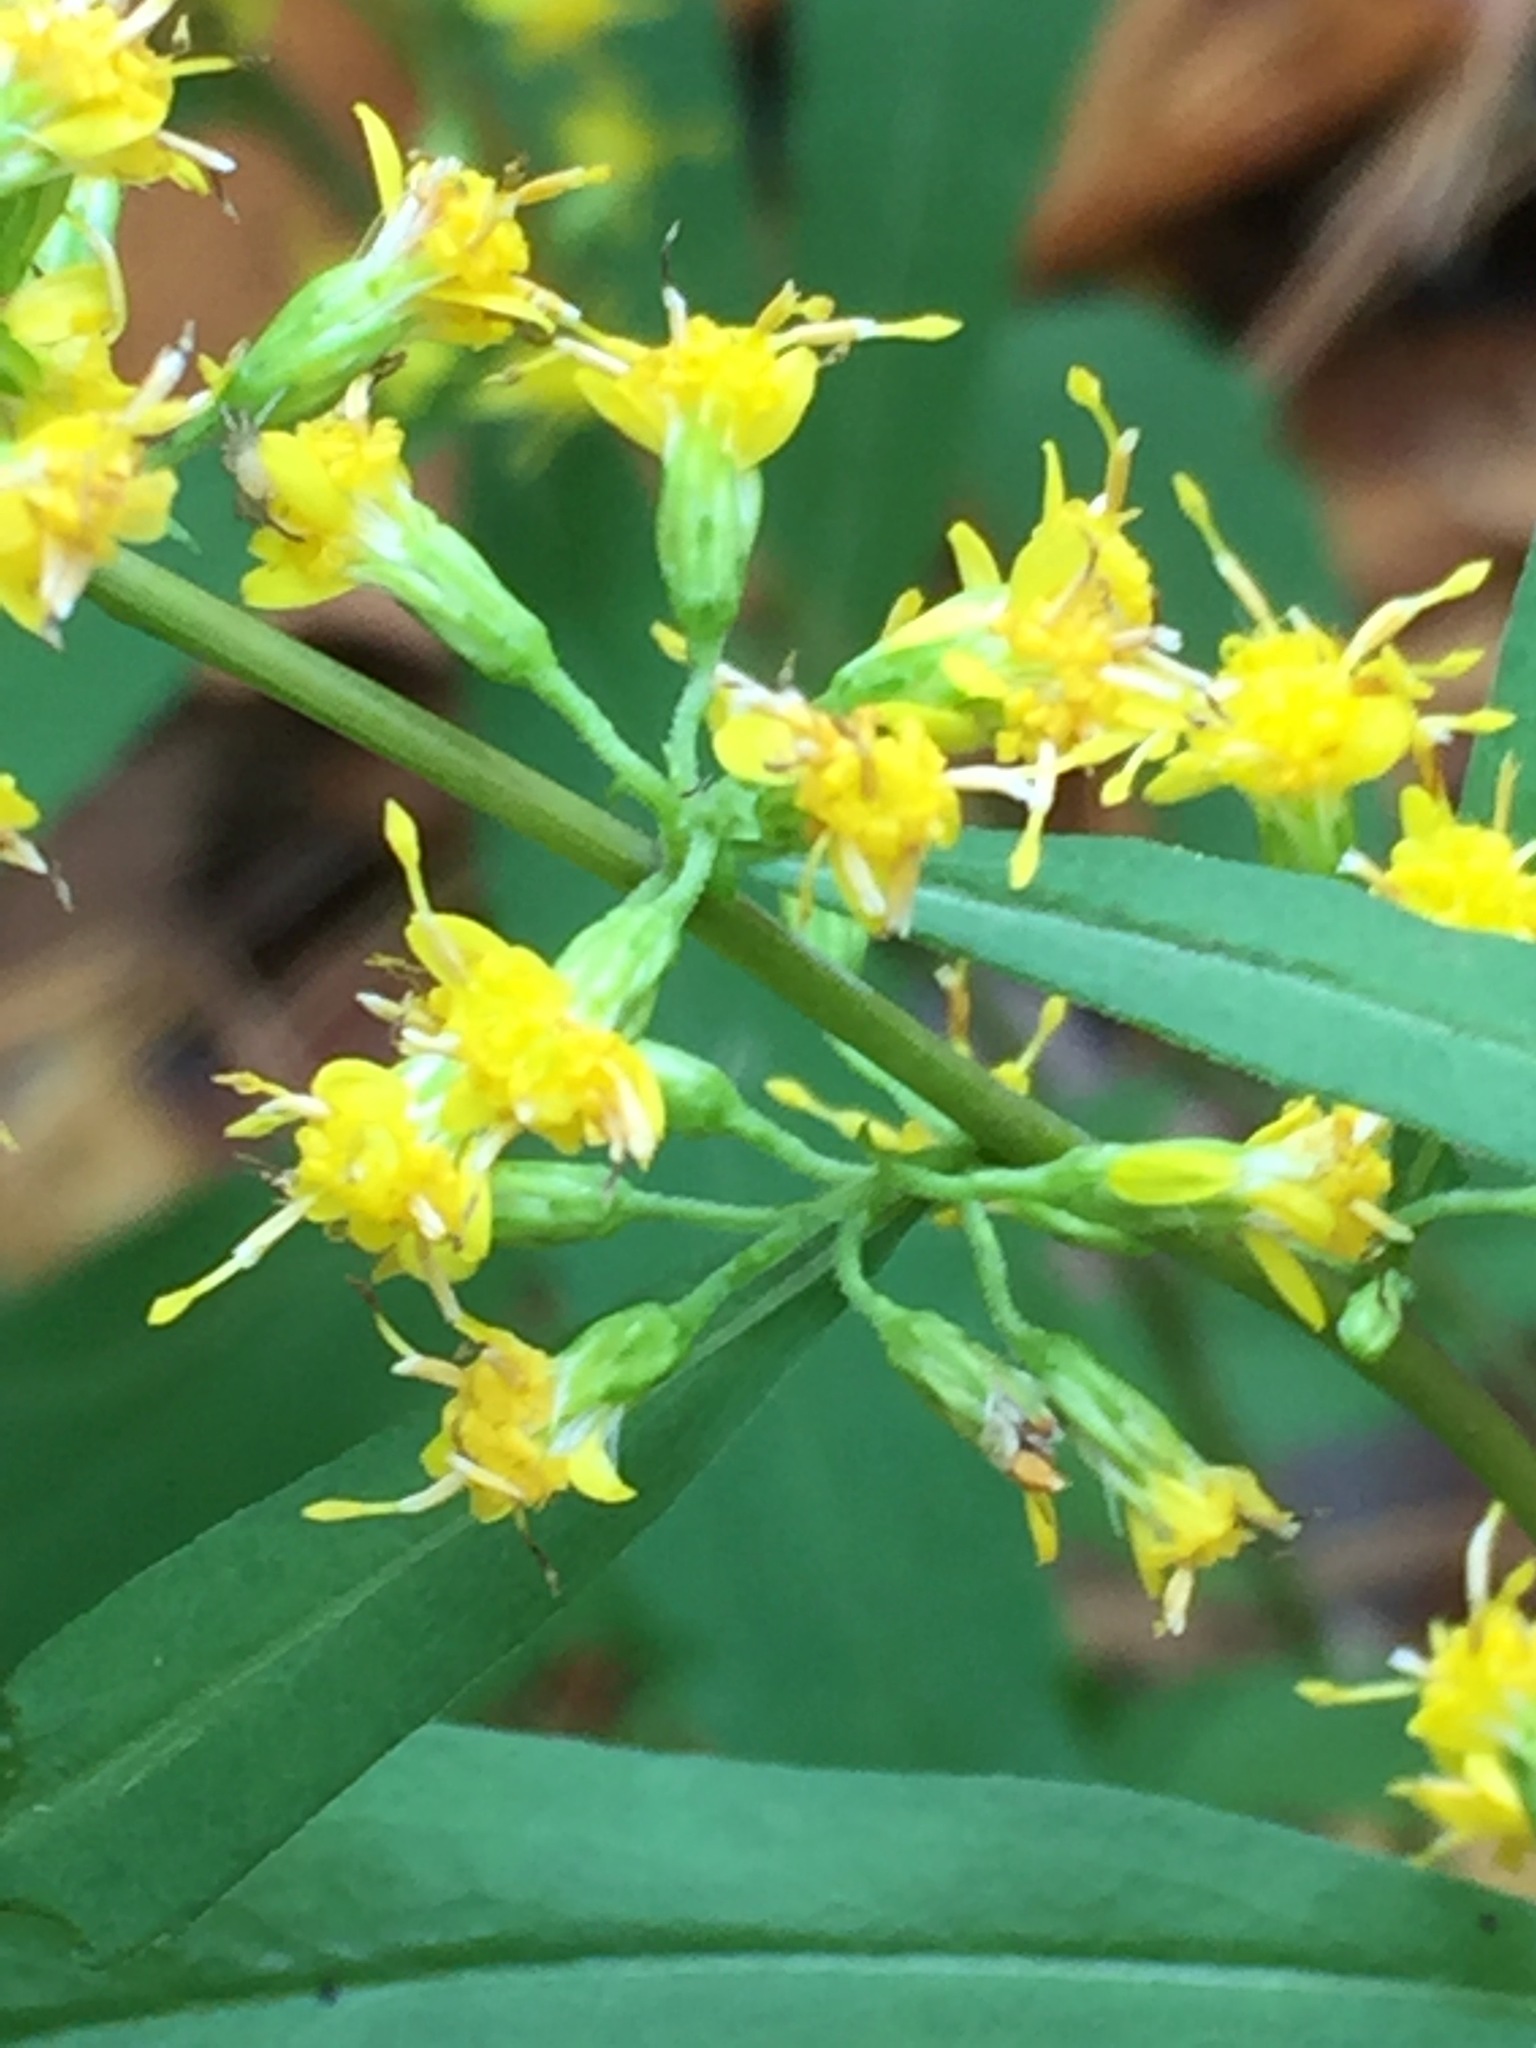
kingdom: Plantae
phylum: Tracheophyta
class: Magnoliopsida
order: Asterales
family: Asteraceae
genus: Solidago
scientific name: Solidago caesia
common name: Woodland goldenrod
